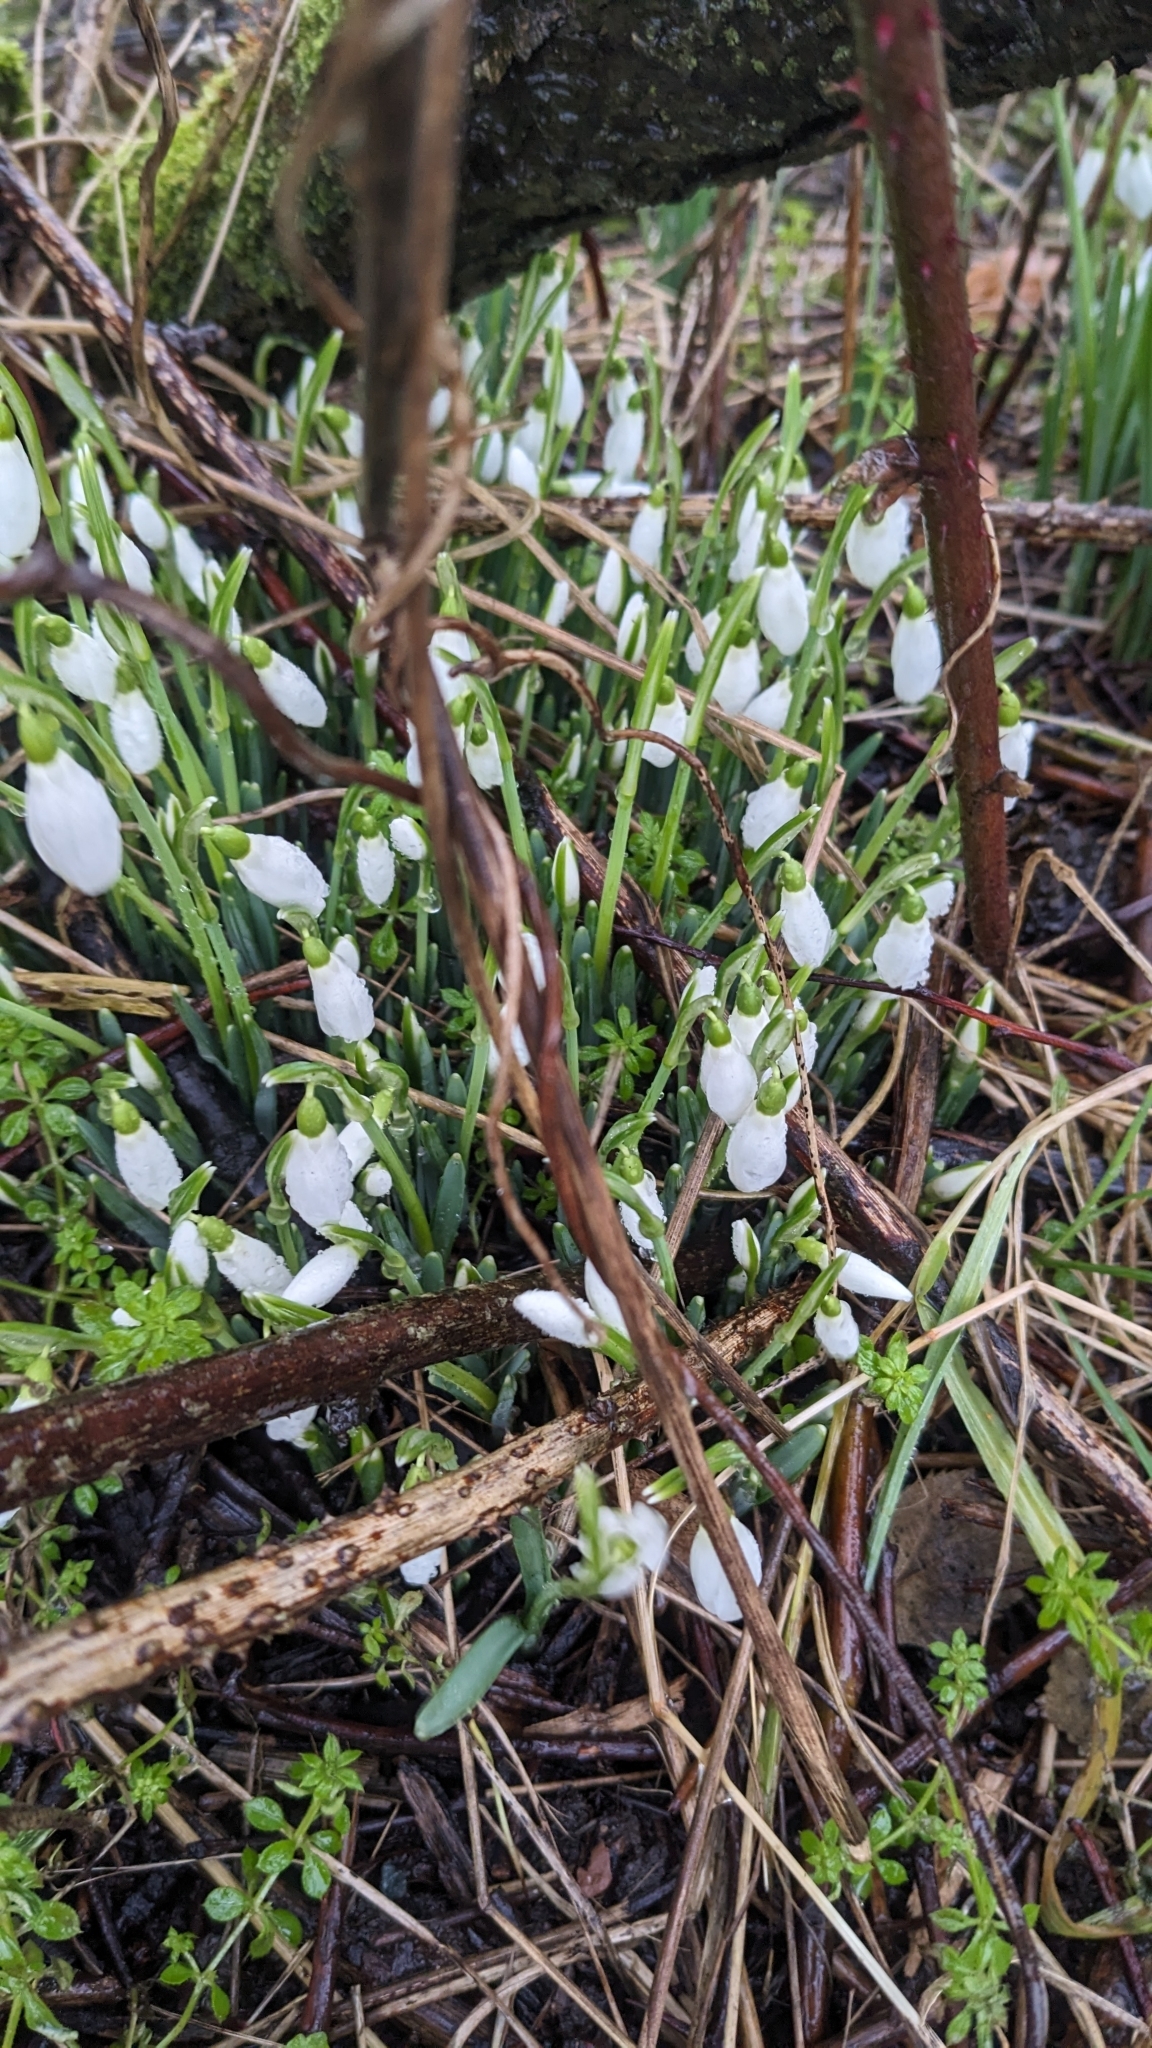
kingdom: Plantae
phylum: Tracheophyta
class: Liliopsida
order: Asparagales
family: Amaryllidaceae
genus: Galanthus
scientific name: Galanthus nivalis
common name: Snowdrop
